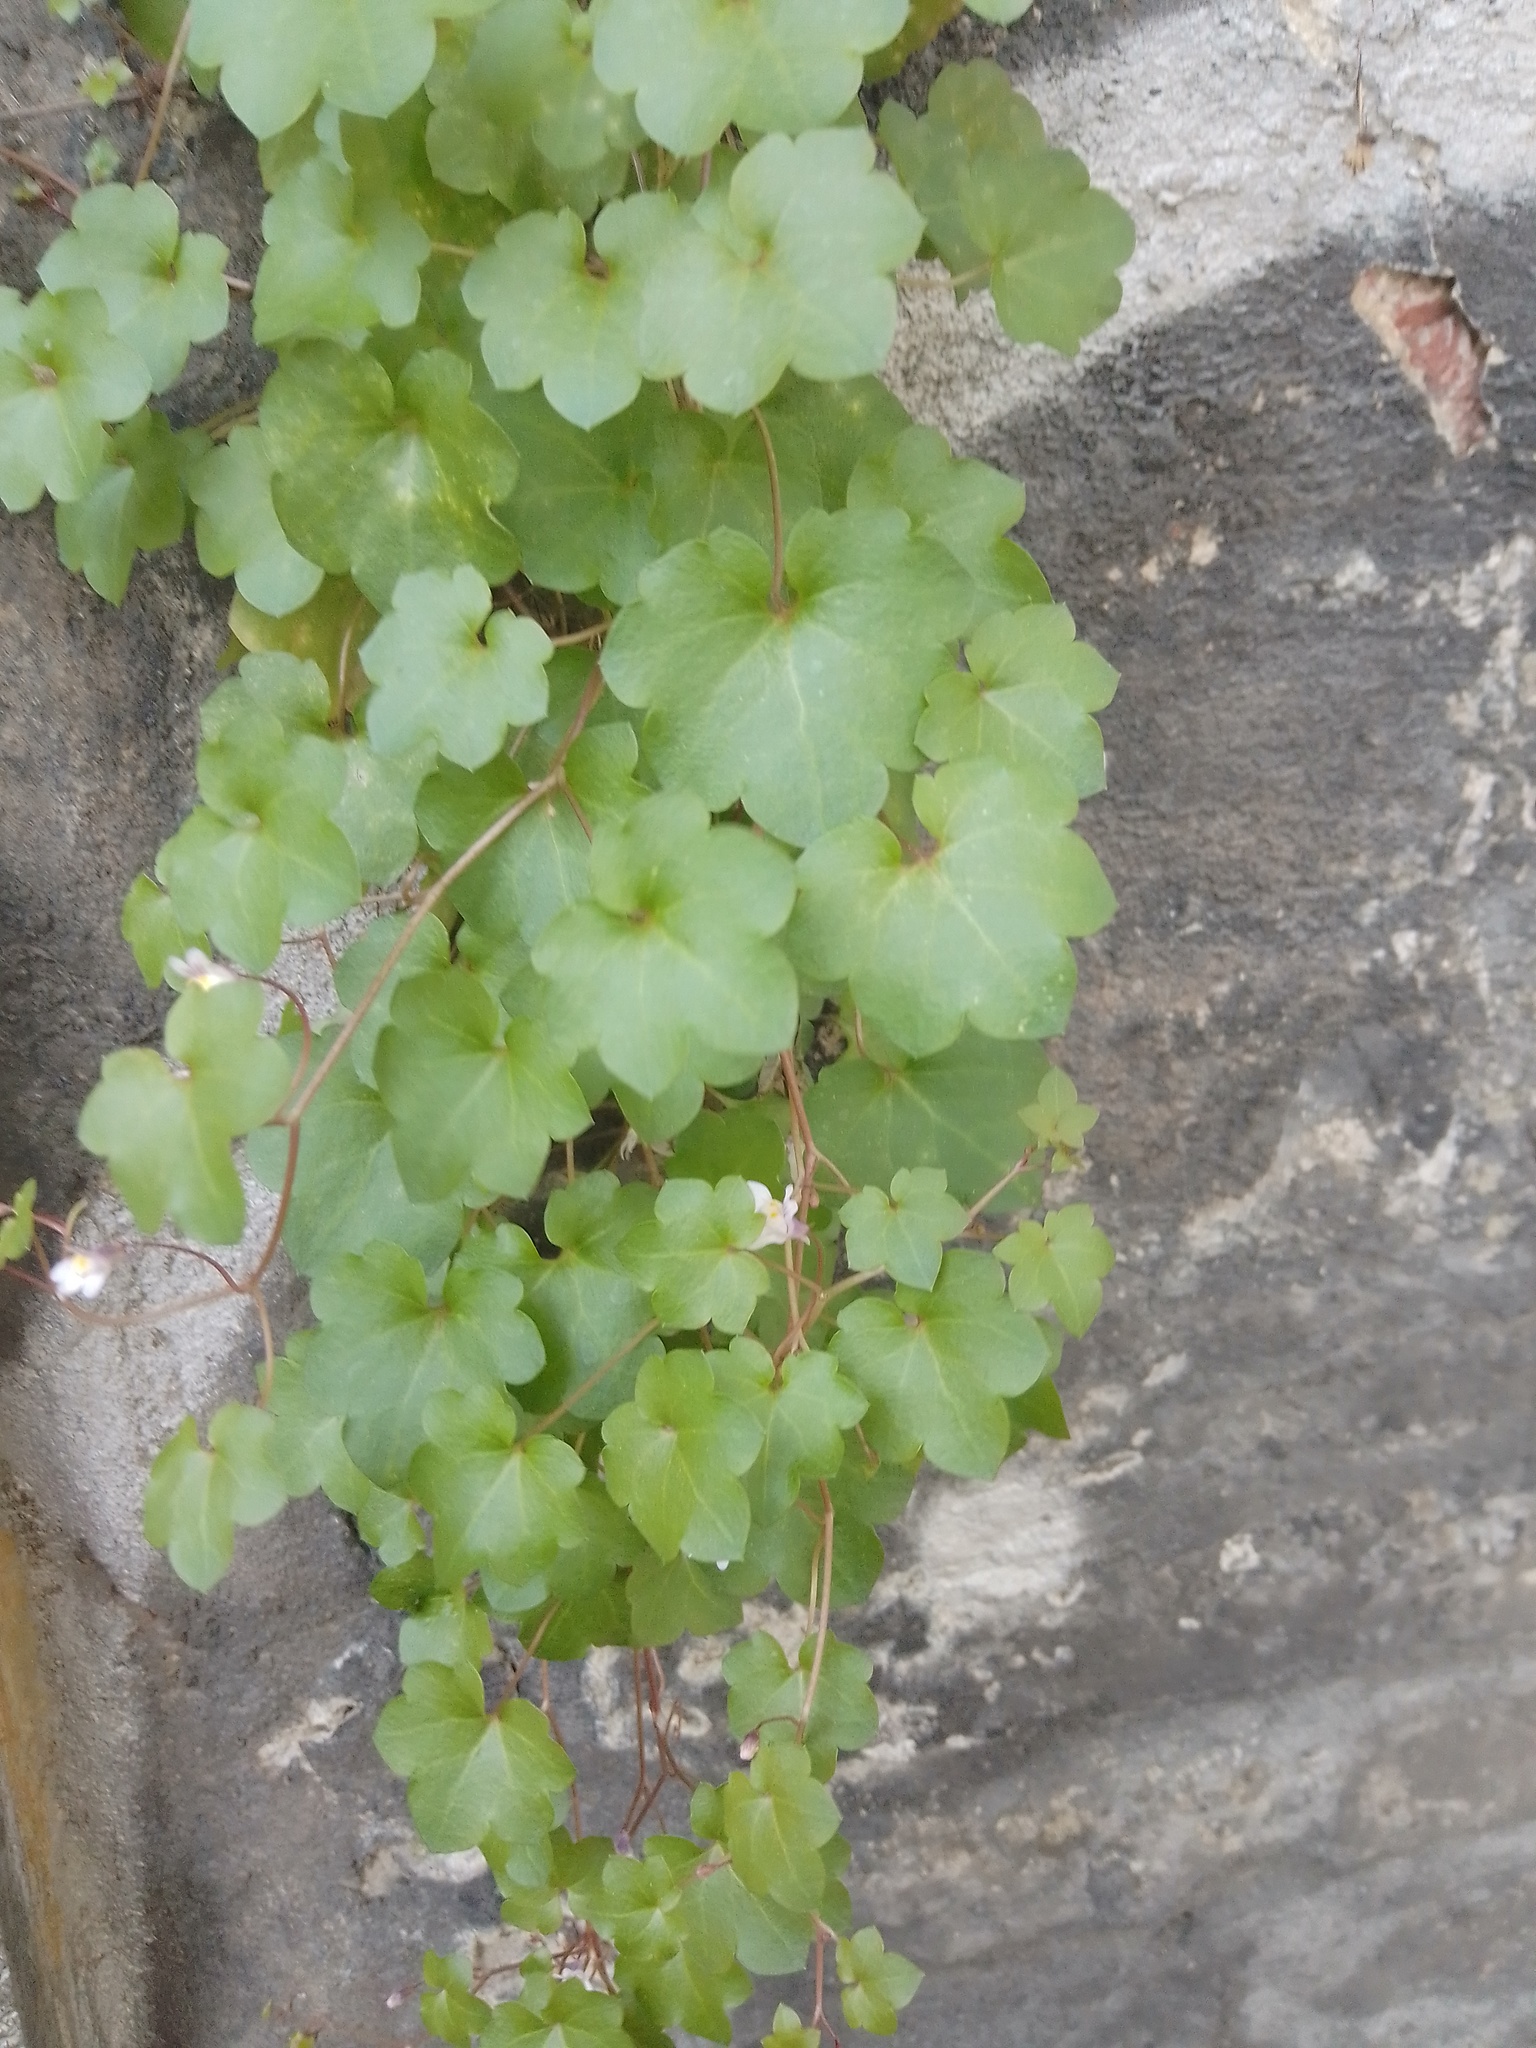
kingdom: Plantae
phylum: Tracheophyta
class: Magnoliopsida
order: Lamiales
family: Plantaginaceae
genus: Cymbalaria
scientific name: Cymbalaria muralis
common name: Ivy-leaved toadflax
